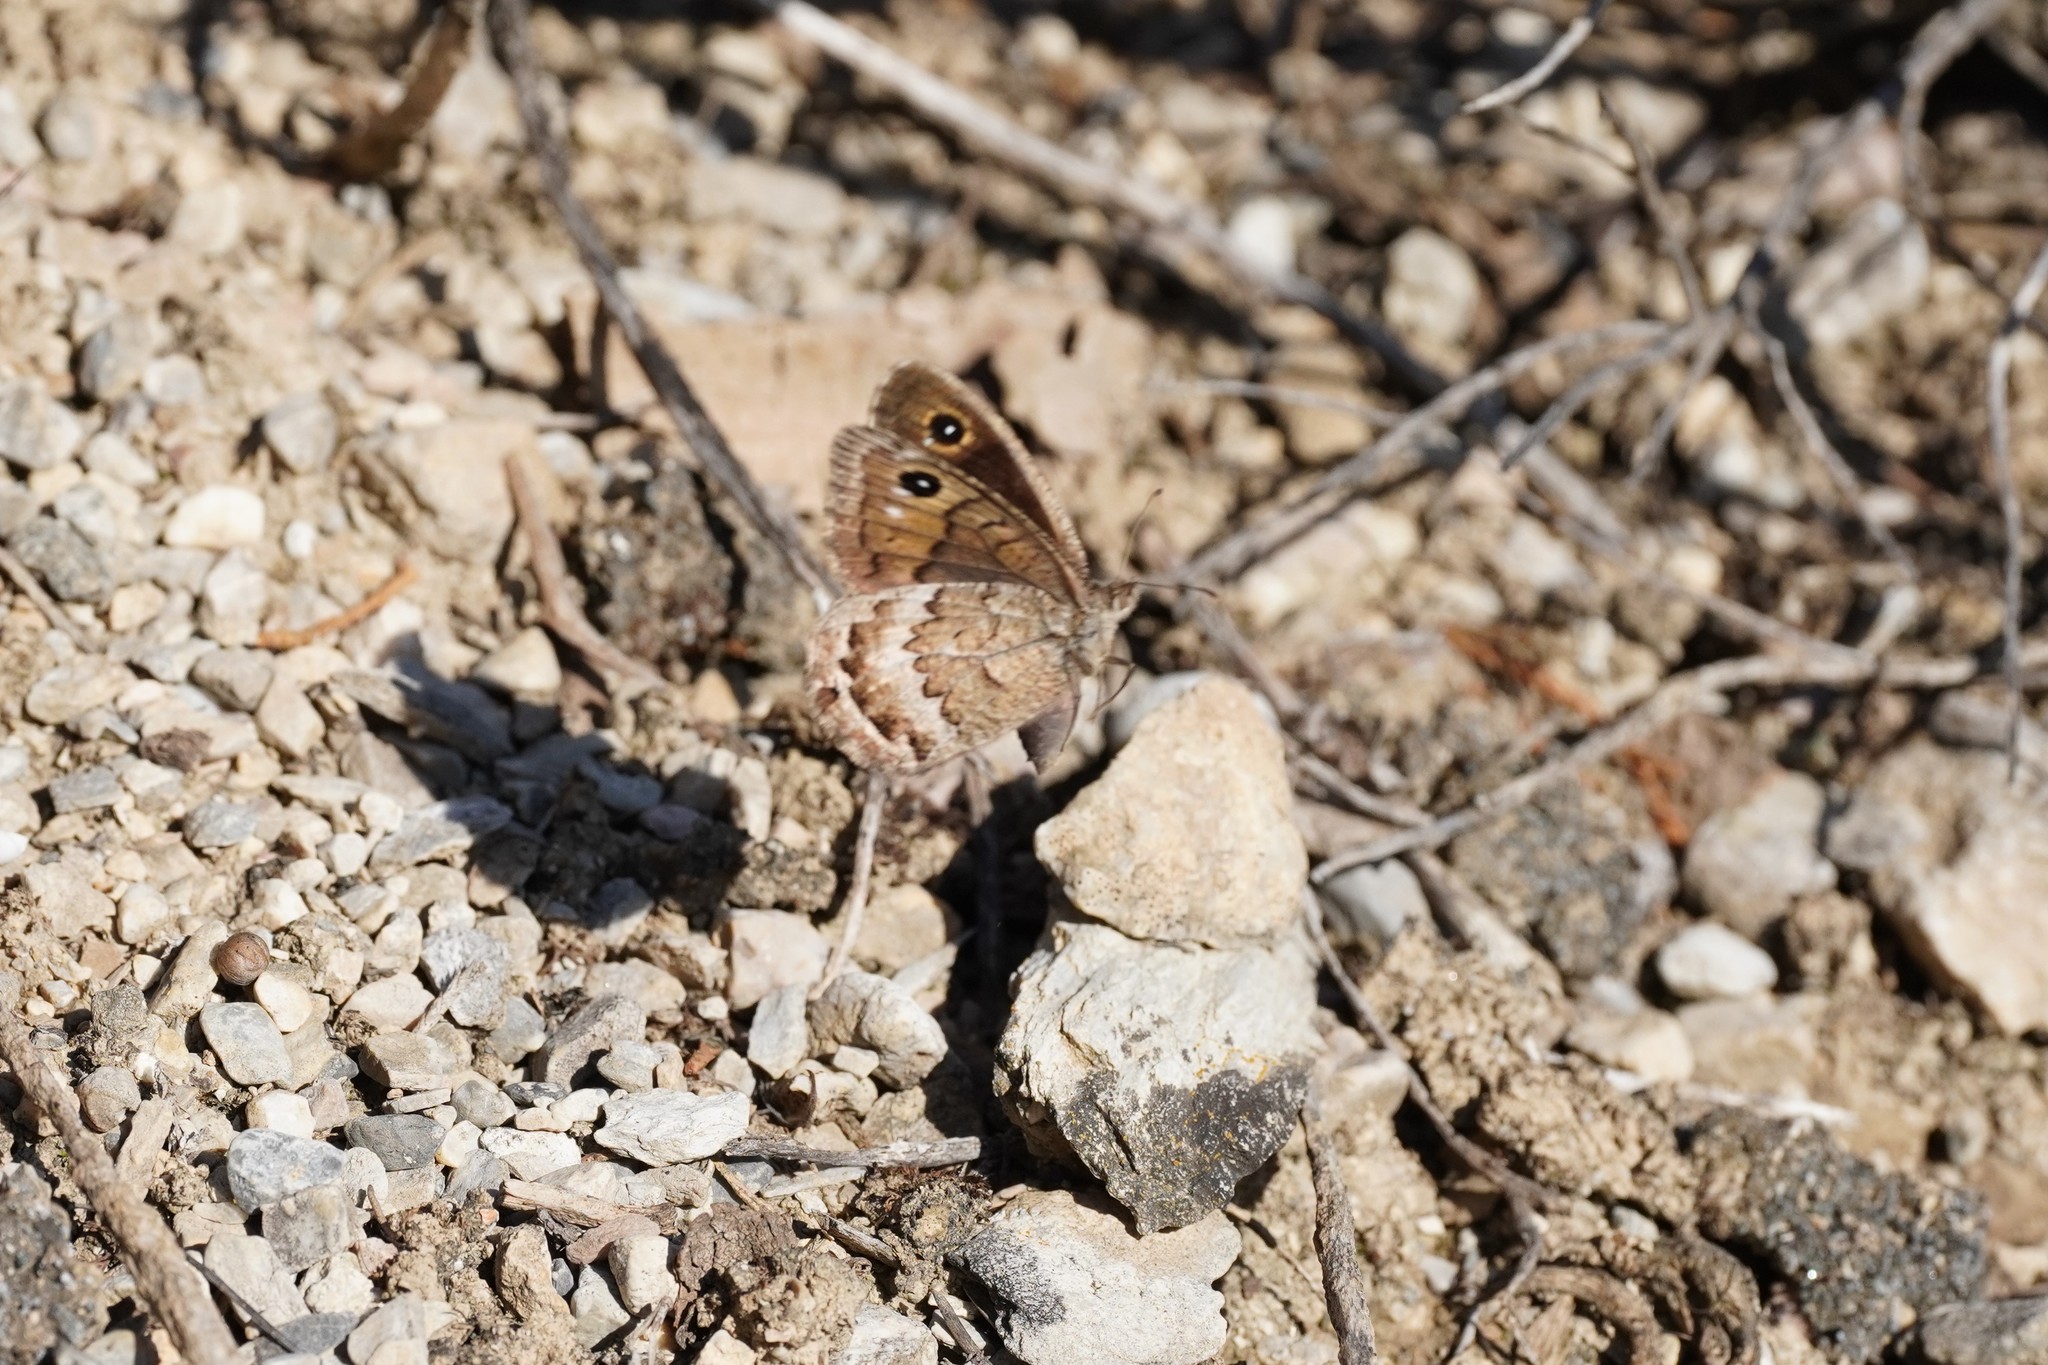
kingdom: Animalia
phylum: Arthropoda
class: Insecta
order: Lepidoptera
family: Nymphalidae
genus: Satyrus
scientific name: Satyrus actaea
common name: Black satyr
